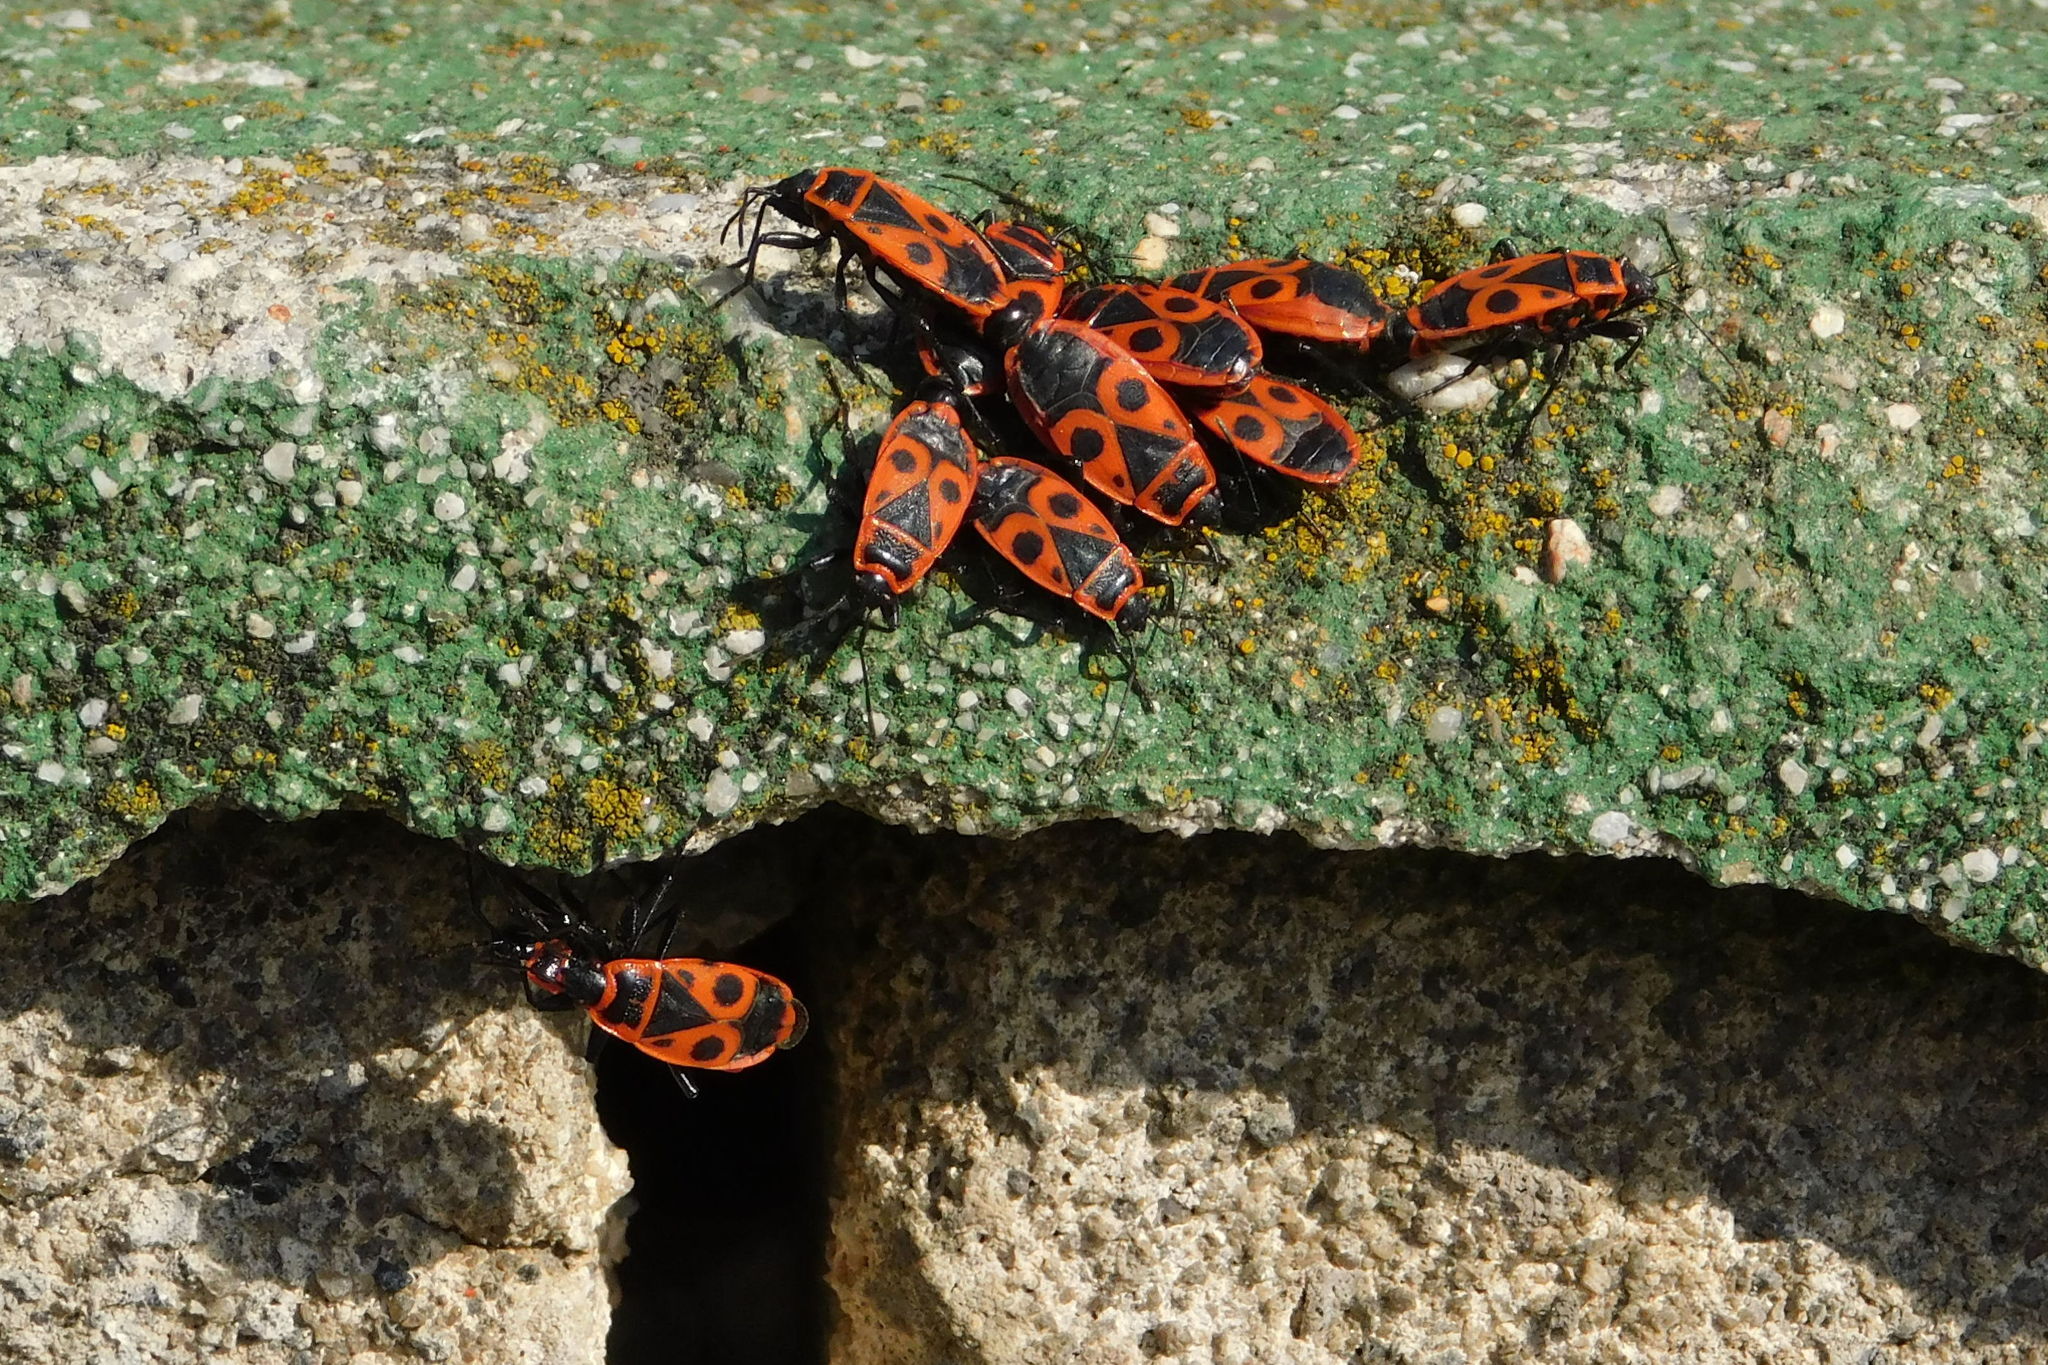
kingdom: Animalia
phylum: Arthropoda
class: Insecta
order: Hemiptera
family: Pyrrhocoridae
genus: Pyrrhocoris
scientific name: Pyrrhocoris apterus
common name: Firebug
